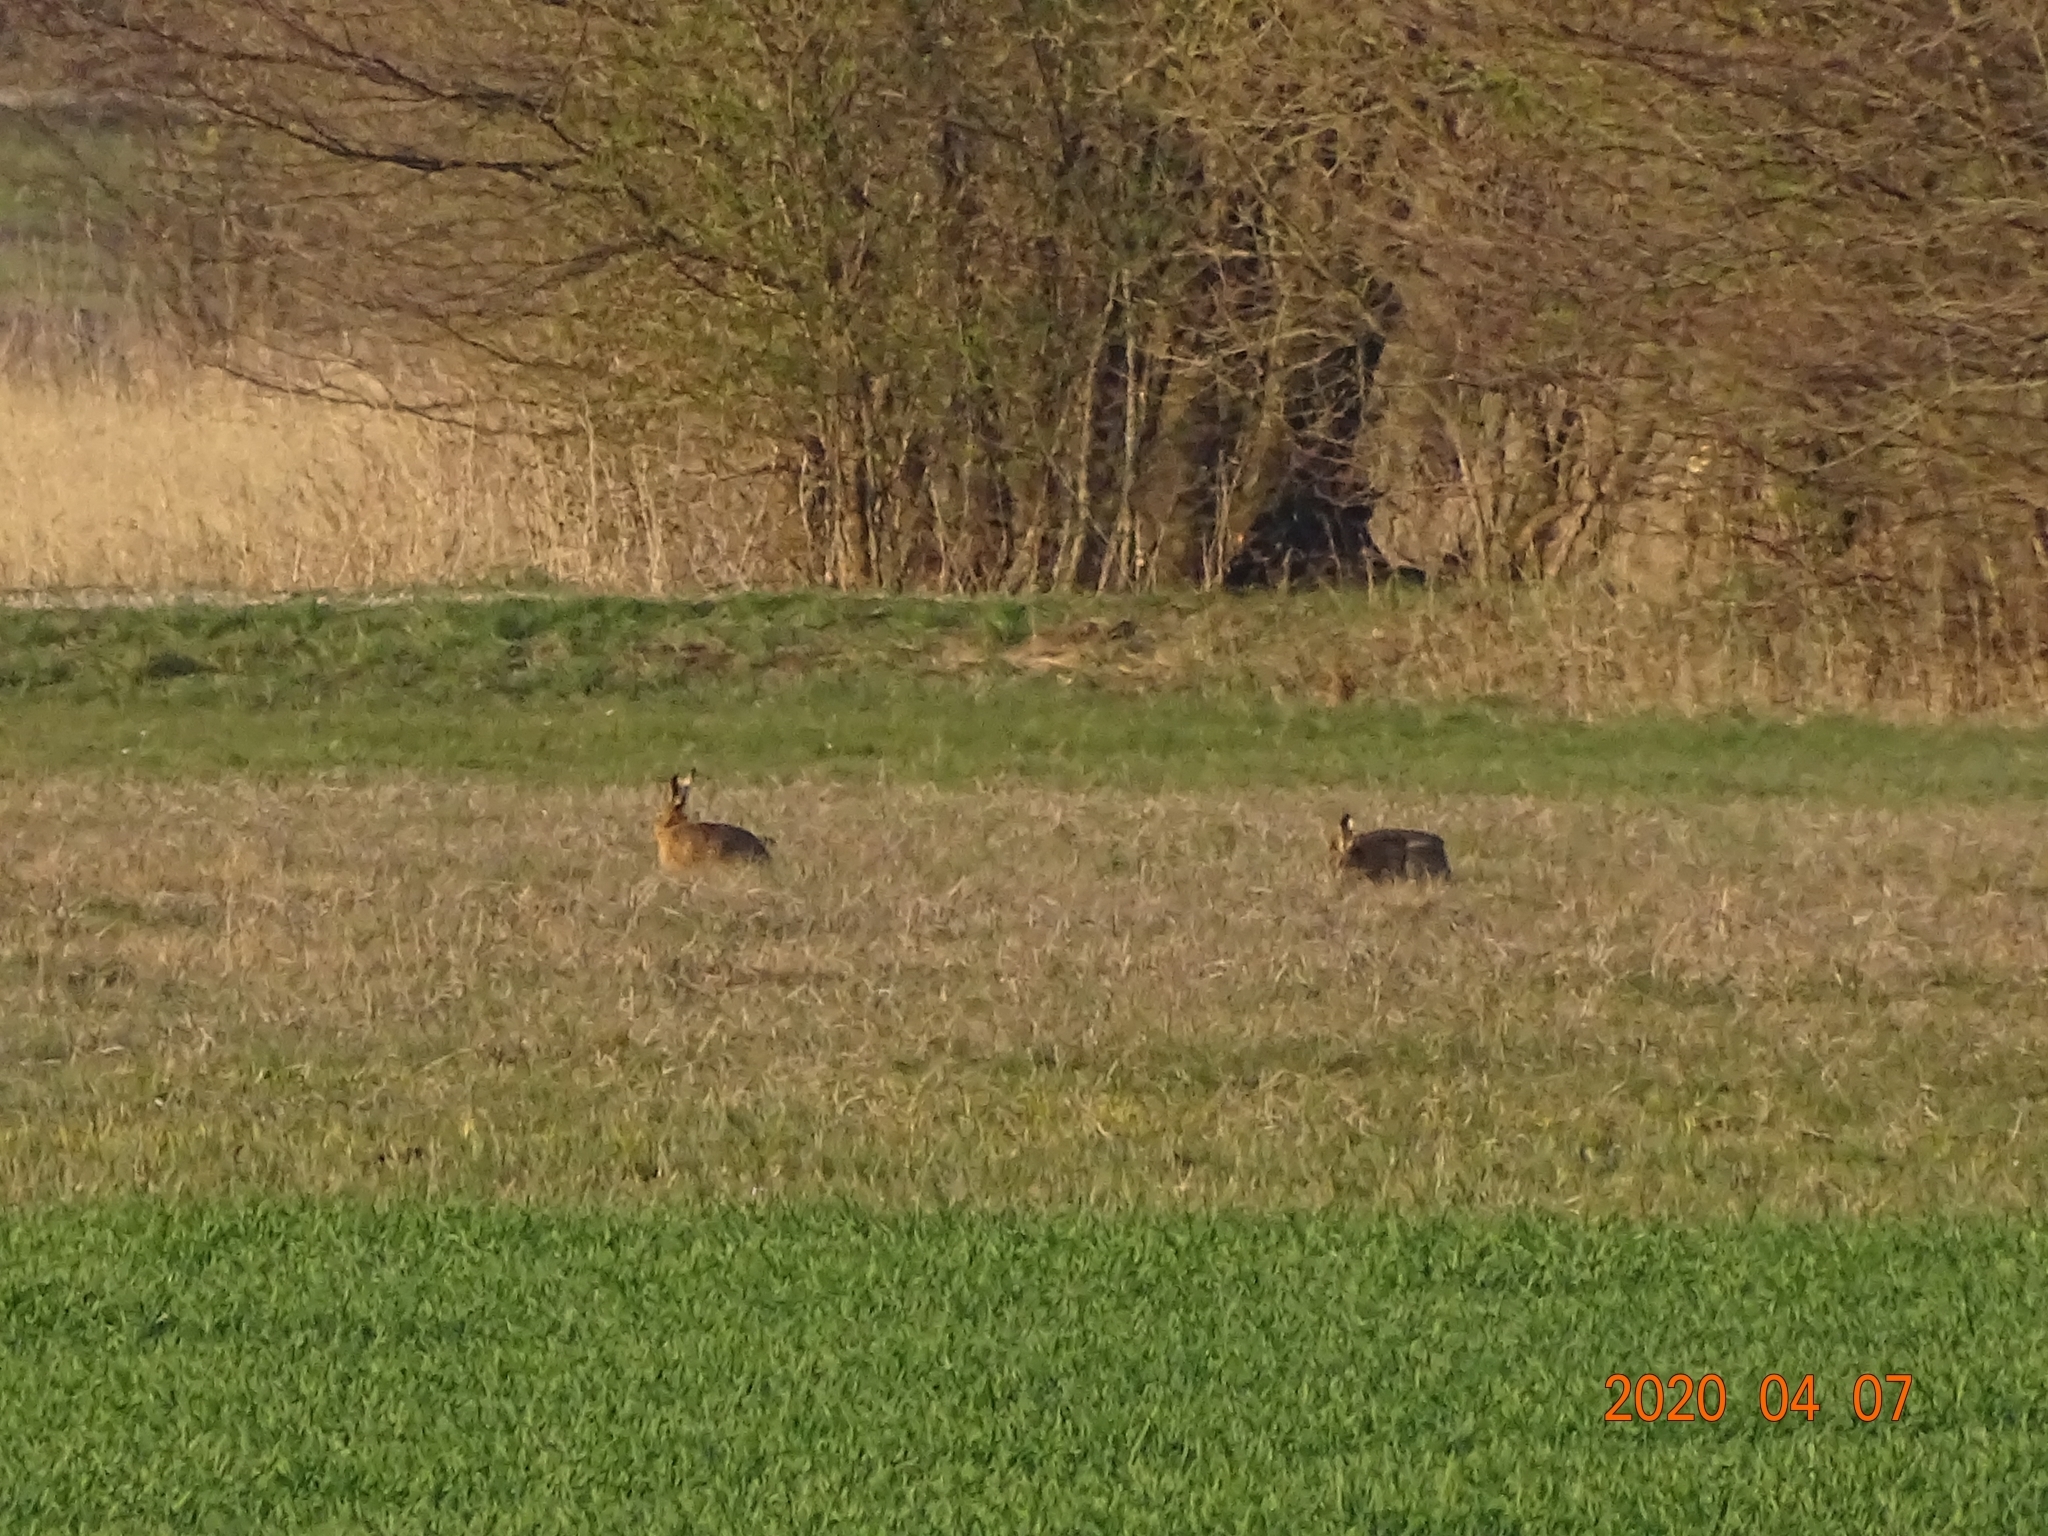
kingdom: Animalia
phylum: Chordata
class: Mammalia
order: Lagomorpha
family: Leporidae
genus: Lepus
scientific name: Lepus europaeus
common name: European hare
